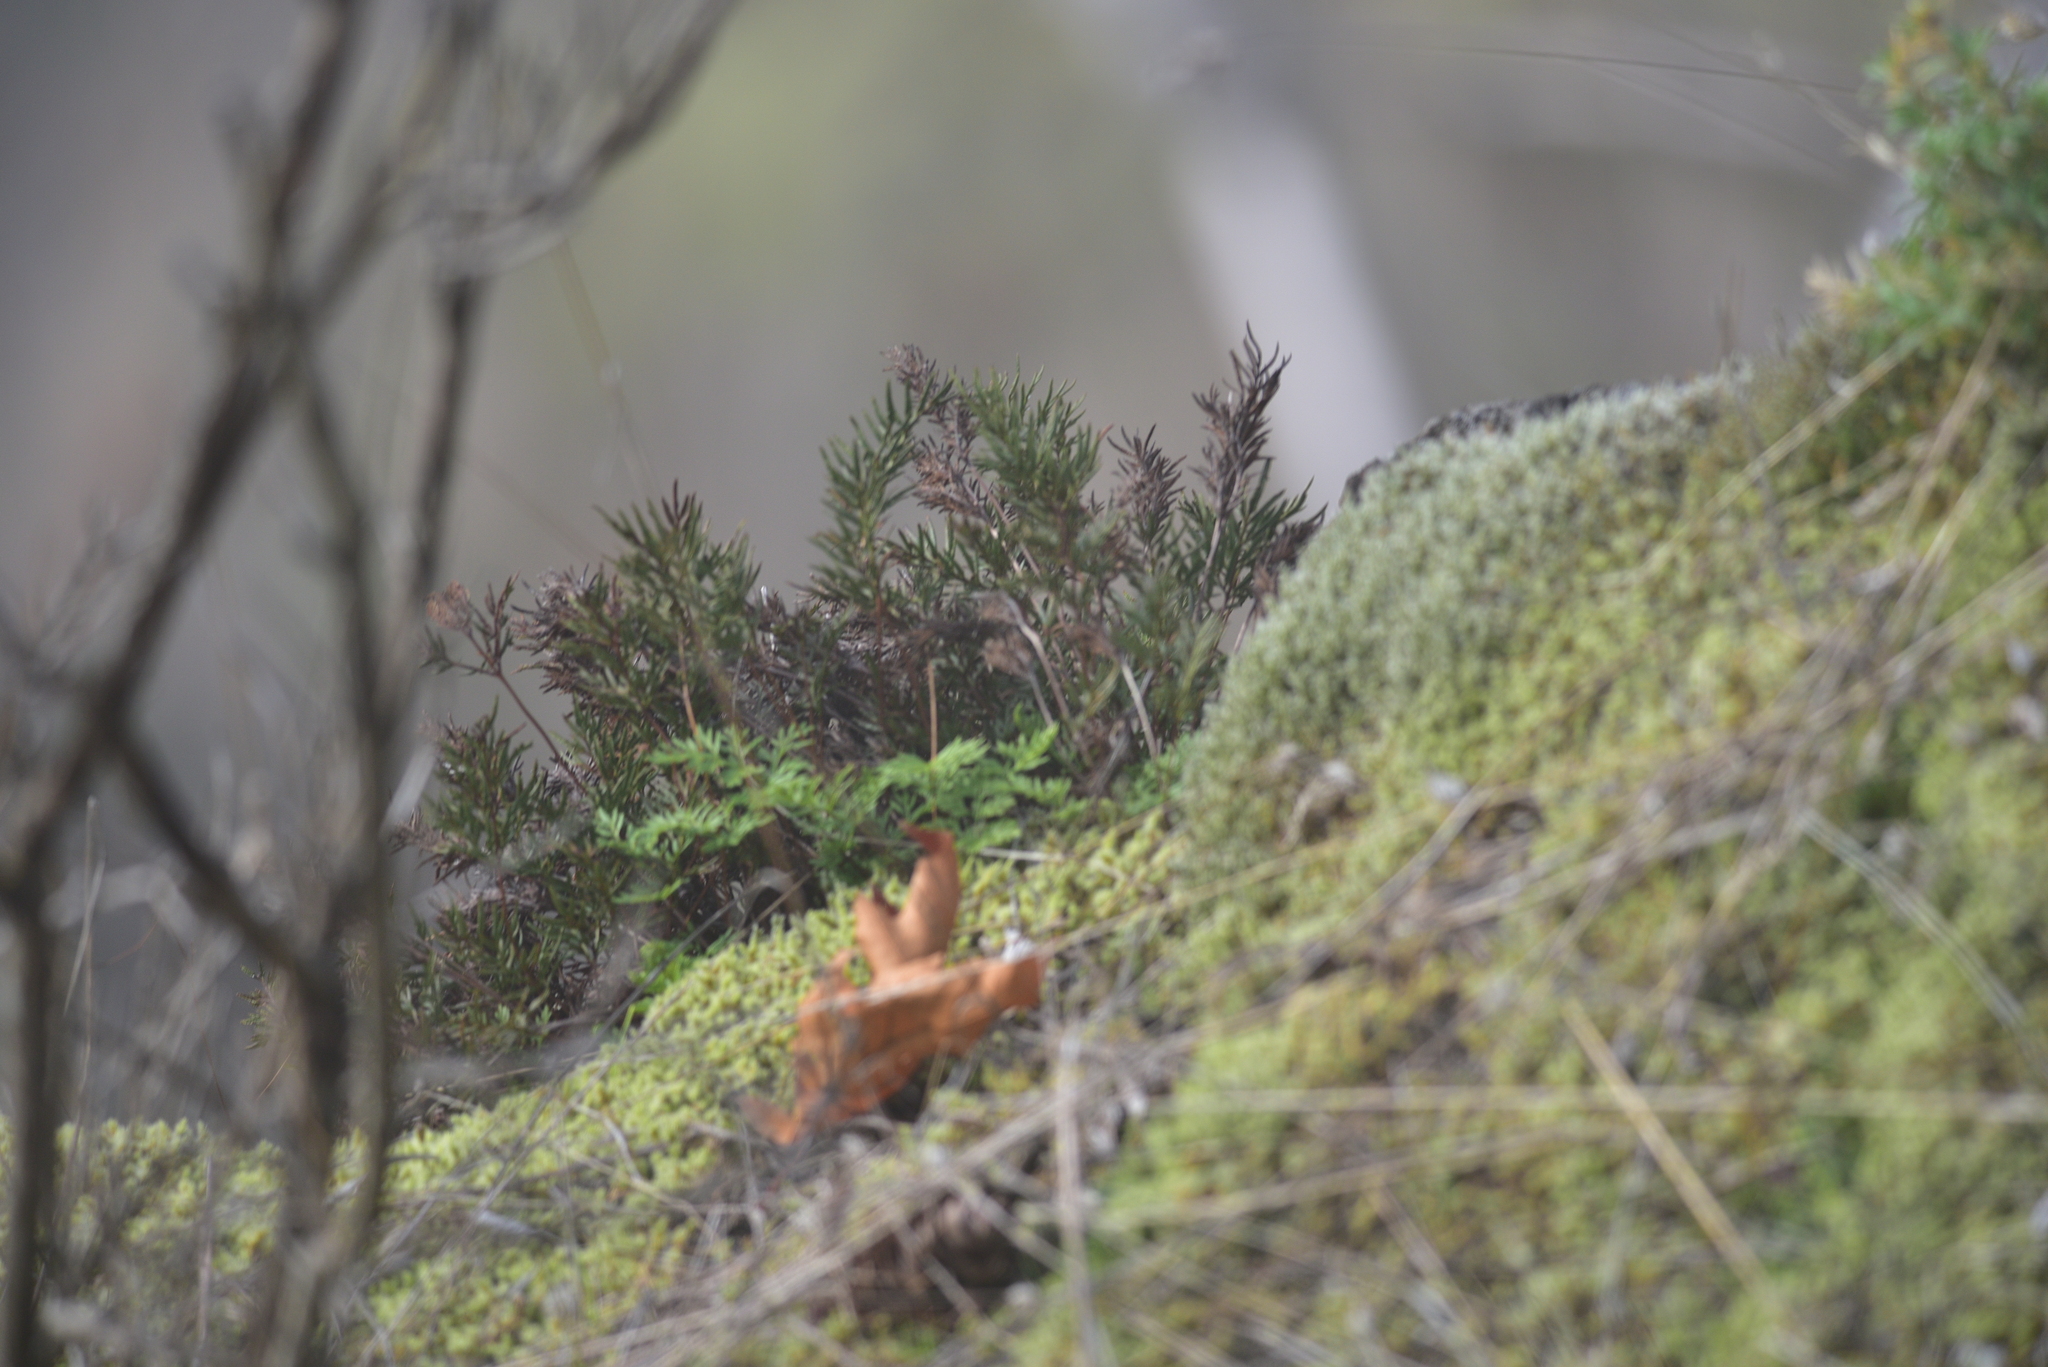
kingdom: Plantae
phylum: Tracheophyta
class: Polypodiopsida
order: Polypodiales
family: Pteridaceae
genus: Aspidotis
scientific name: Aspidotis densa
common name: Indian's dream
